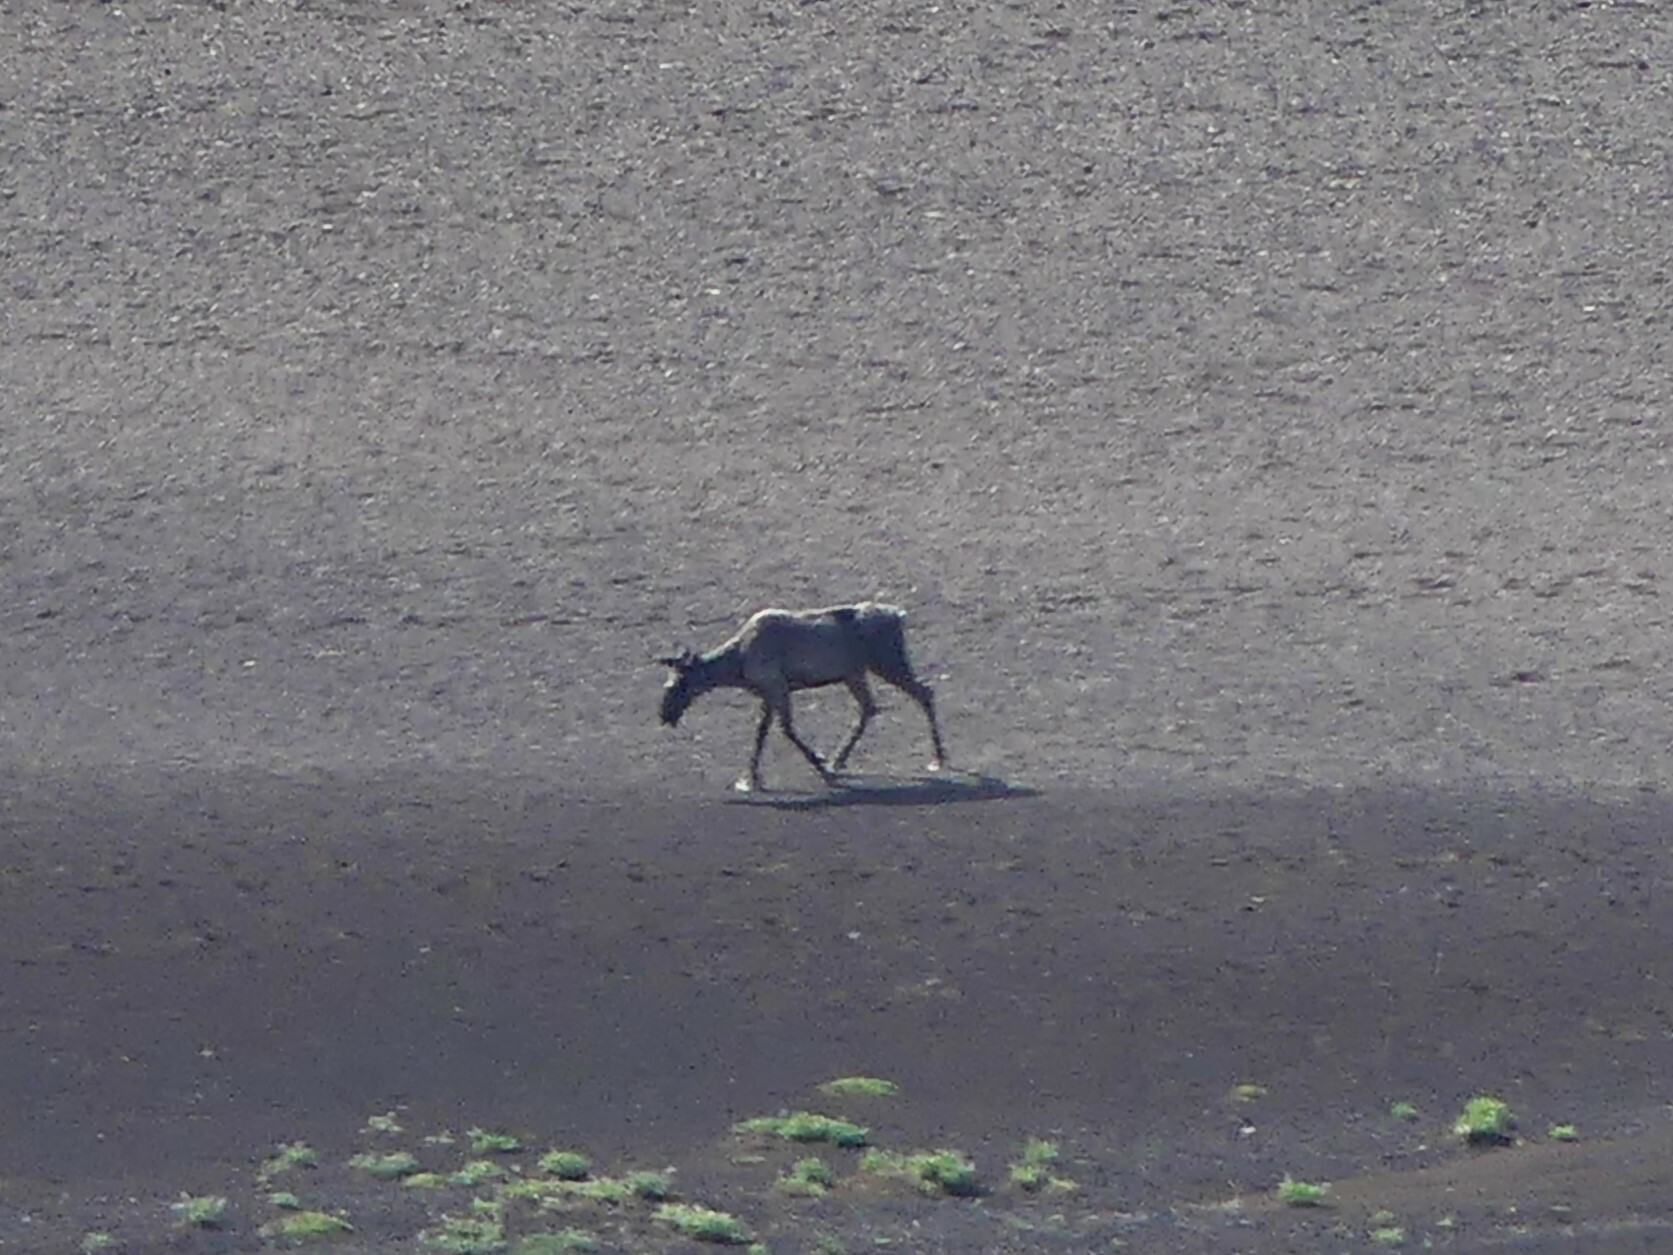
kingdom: Animalia
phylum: Chordata
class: Mammalia
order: Artiodactyla
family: Cervidae
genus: Rangifer
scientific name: Rangifer tarandus
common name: Reindeer
